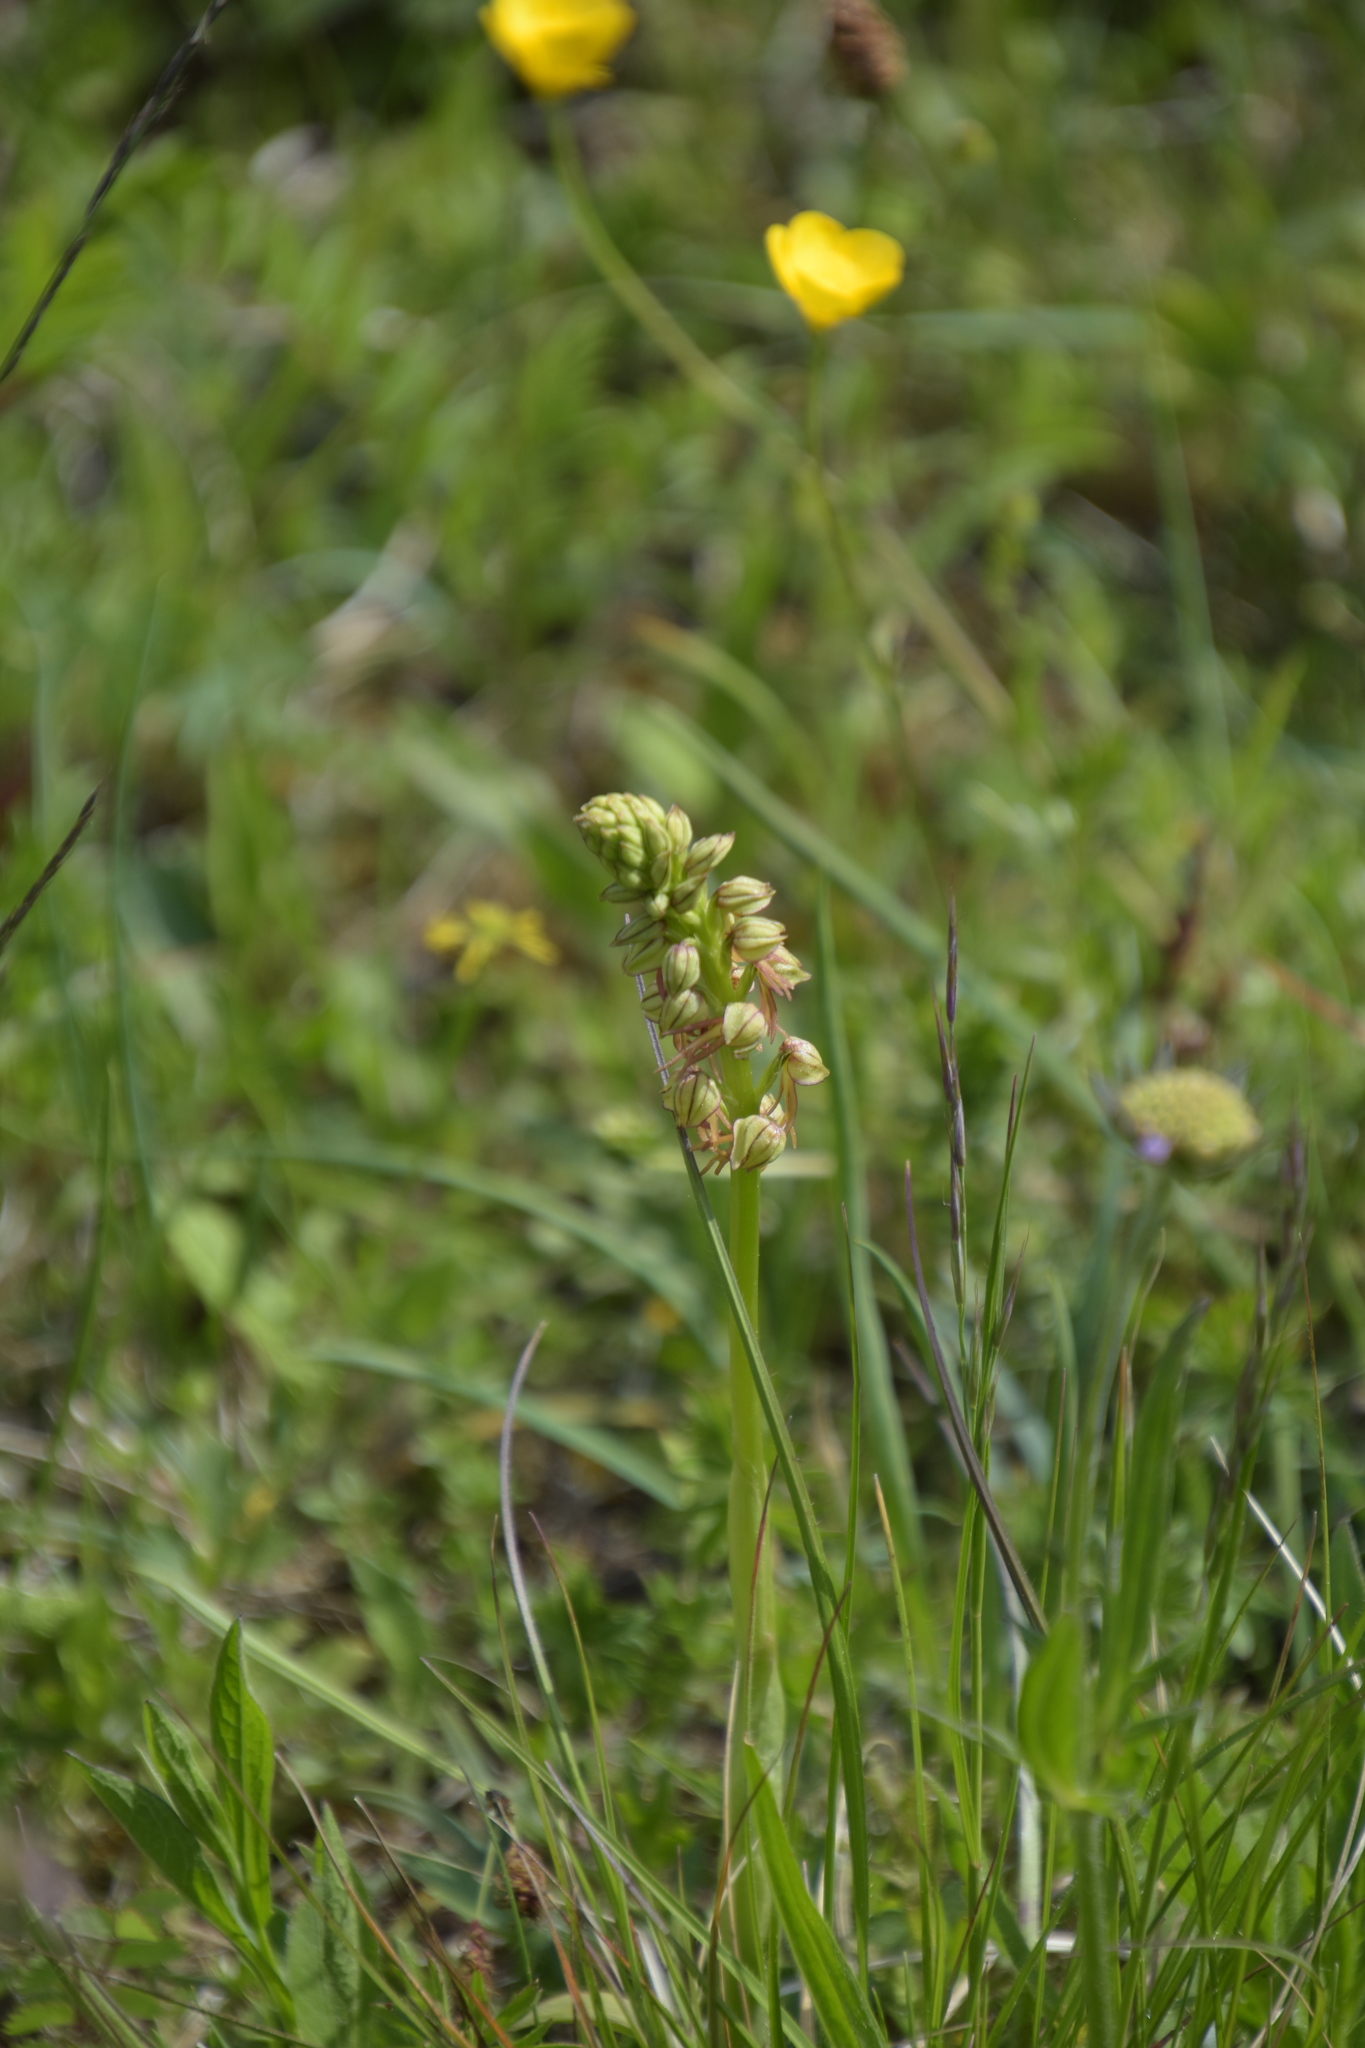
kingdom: Plantae
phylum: Tracheophyta
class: Liliopsida
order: Asparagales
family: Orchidaceae
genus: Orchis
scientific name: Orchis anthropophora
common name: Man orchid
